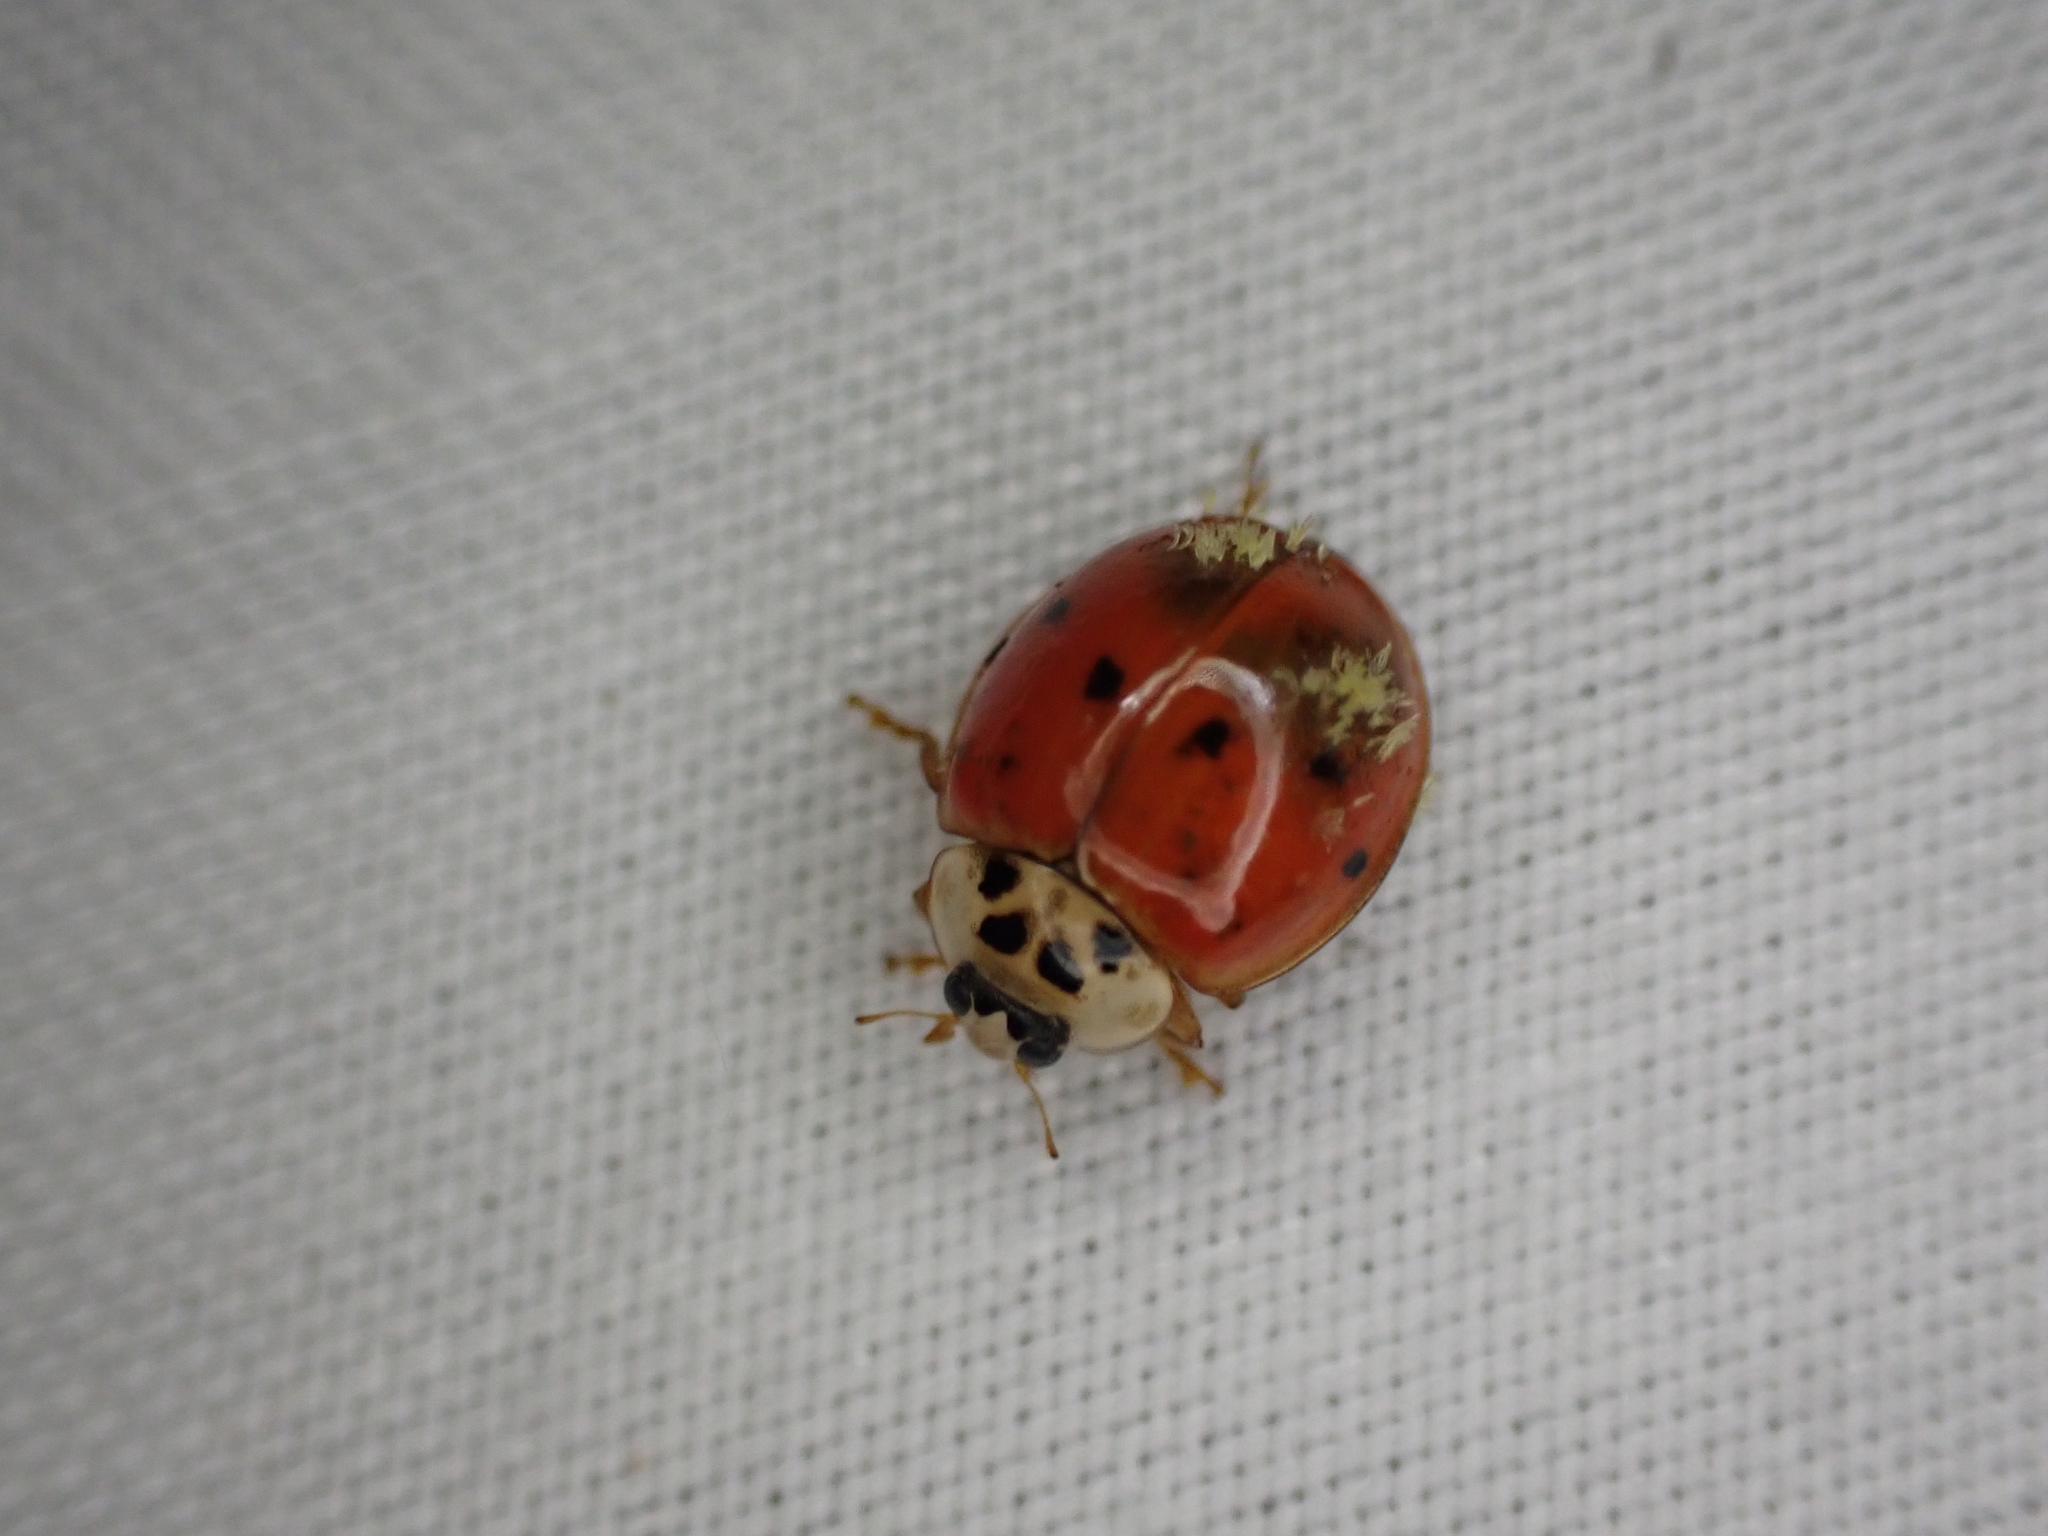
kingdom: Animalia
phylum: Arthropoda
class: Insecta
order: Coleoptera
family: Coccinellidae
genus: Harmonia
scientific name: Harmonia axyridis
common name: Harlequin ladybird
